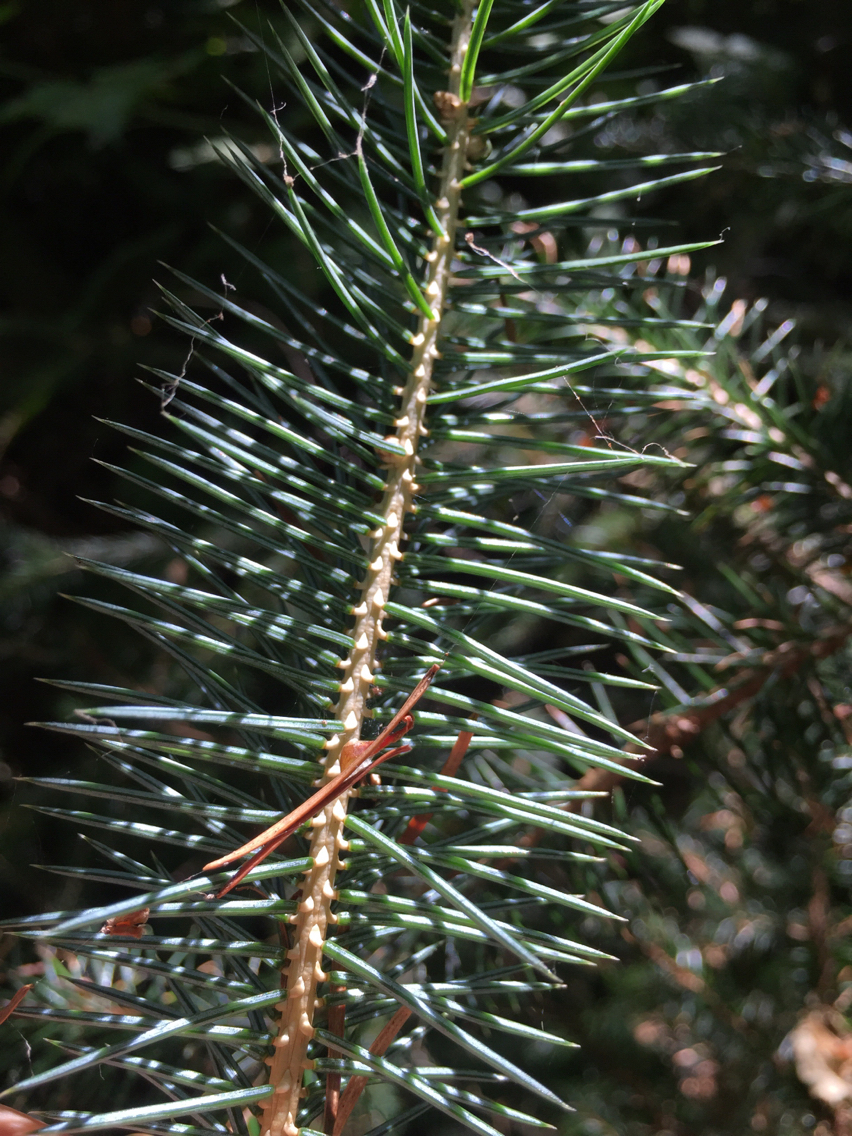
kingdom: Plantae
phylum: Tracheophyta
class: Pinopsida
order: Pinales
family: Pinaceae
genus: Picea
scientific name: Picea sitchensis
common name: Sitka spruce
